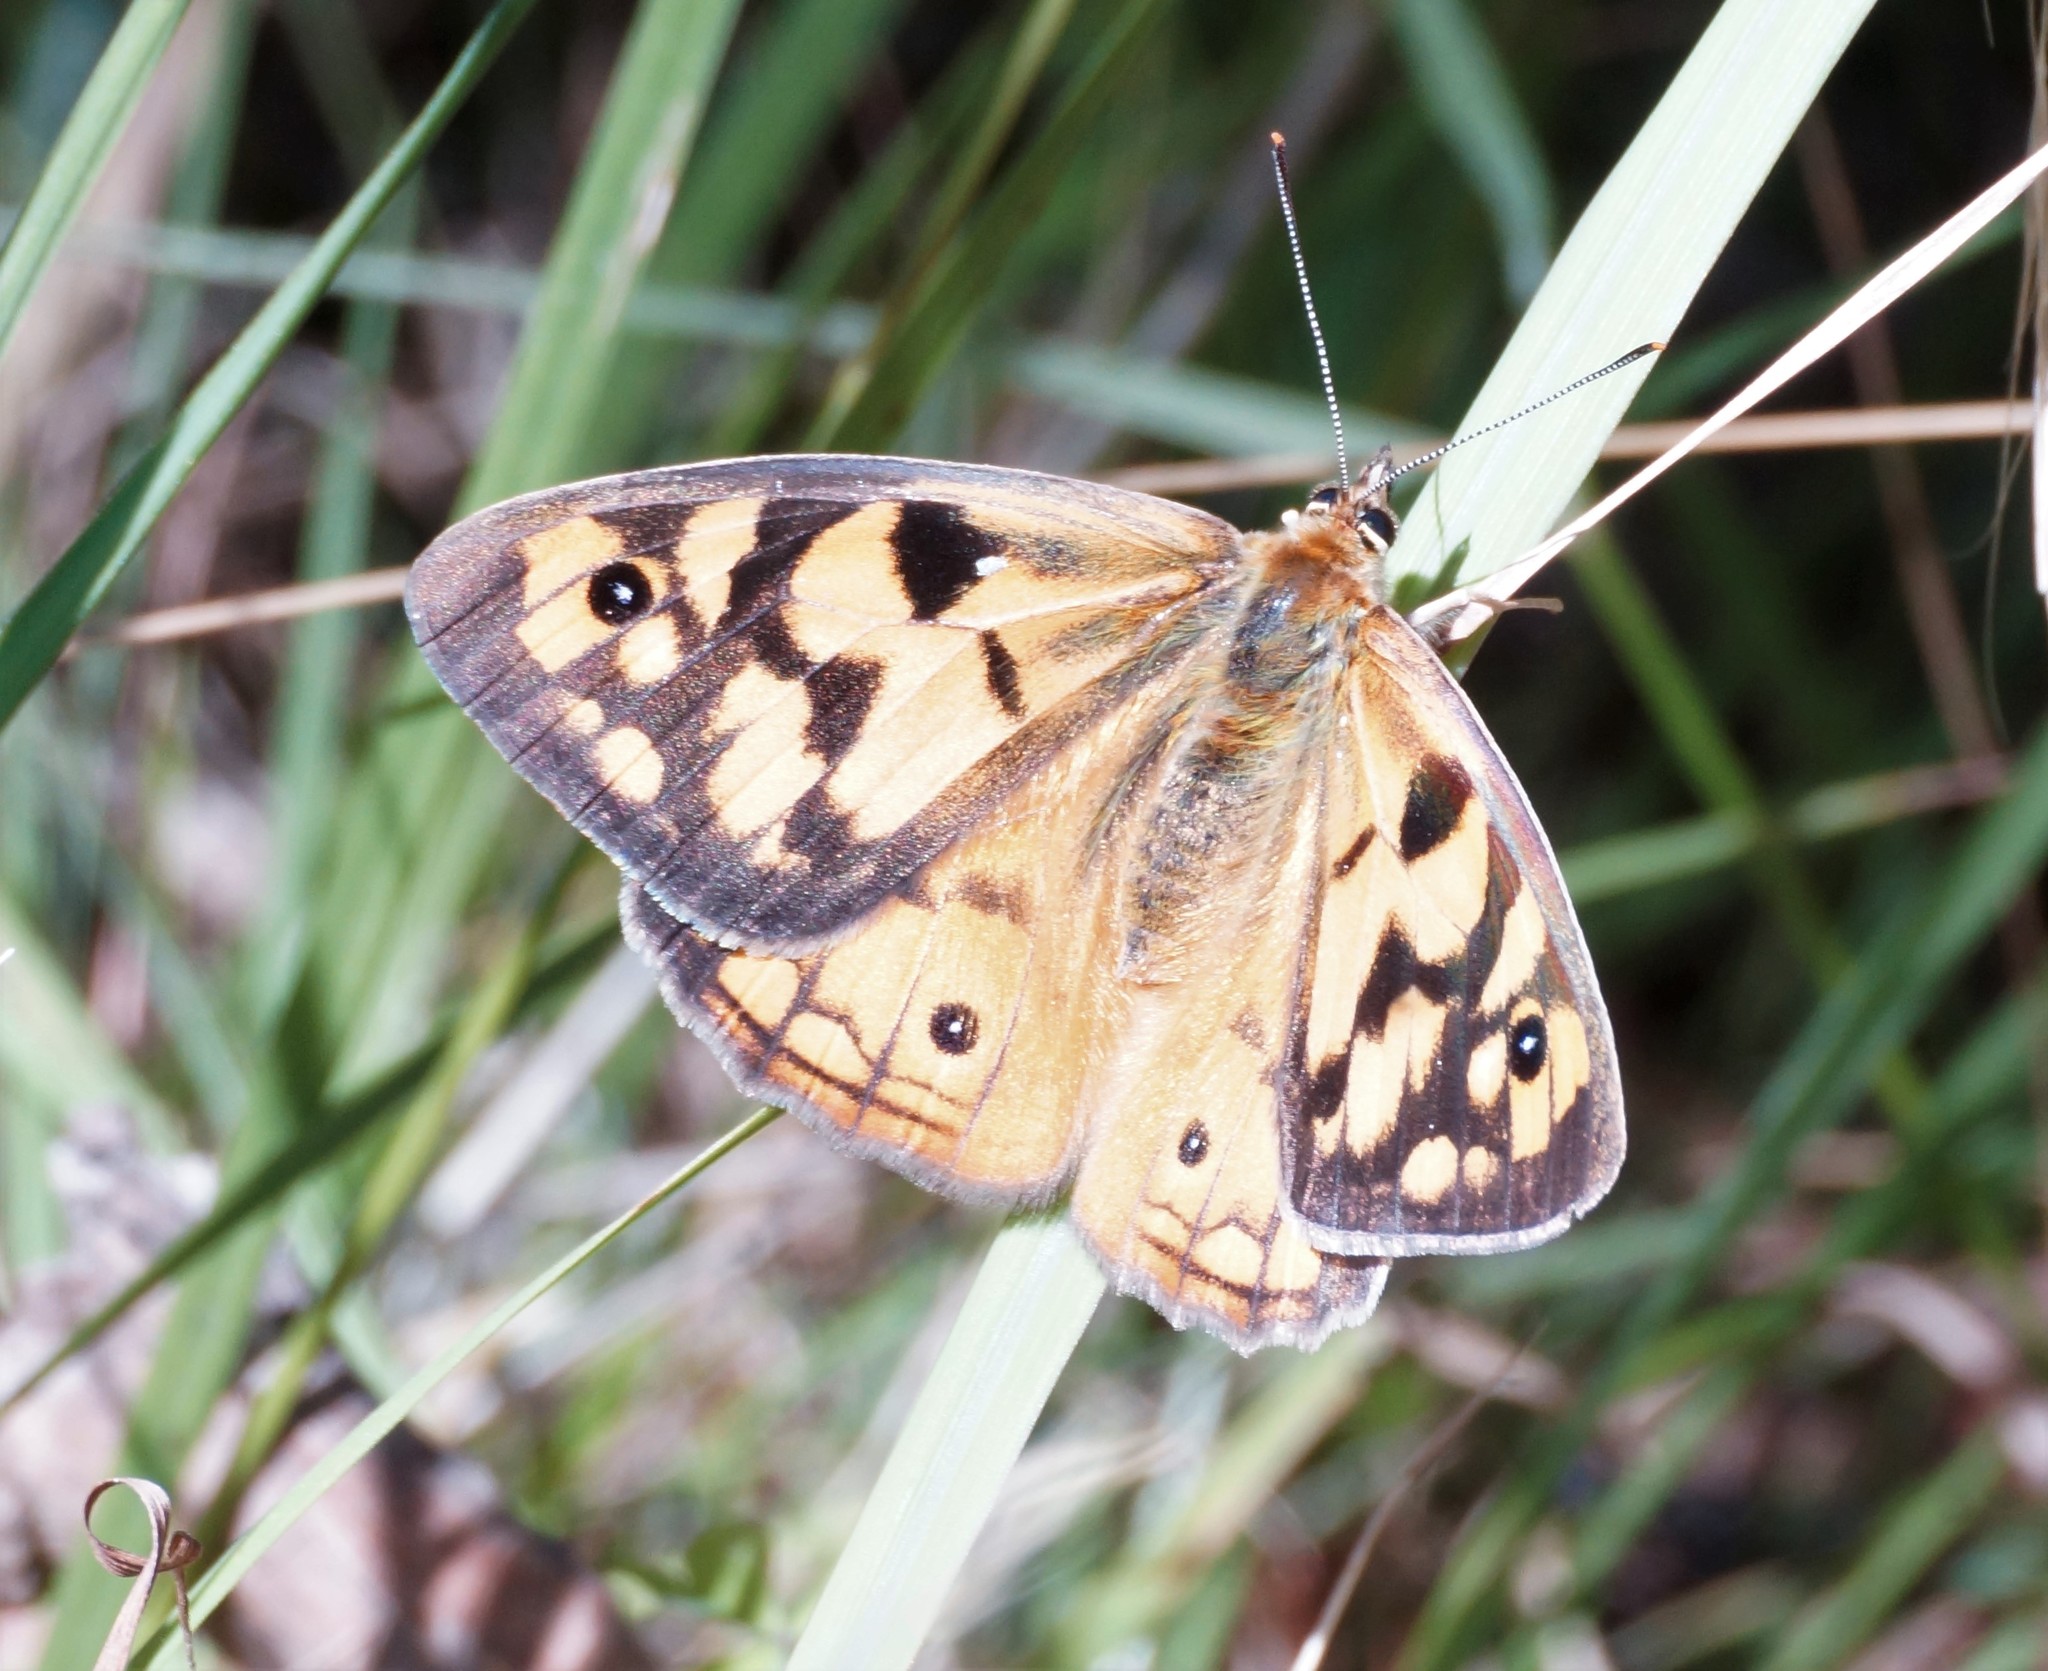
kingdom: Animalia
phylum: Arthropoda
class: Insecta
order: Lepidoptera
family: Nymphalidae
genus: Heteronympha
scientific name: Heteronympha penelope
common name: Shouldered brown
